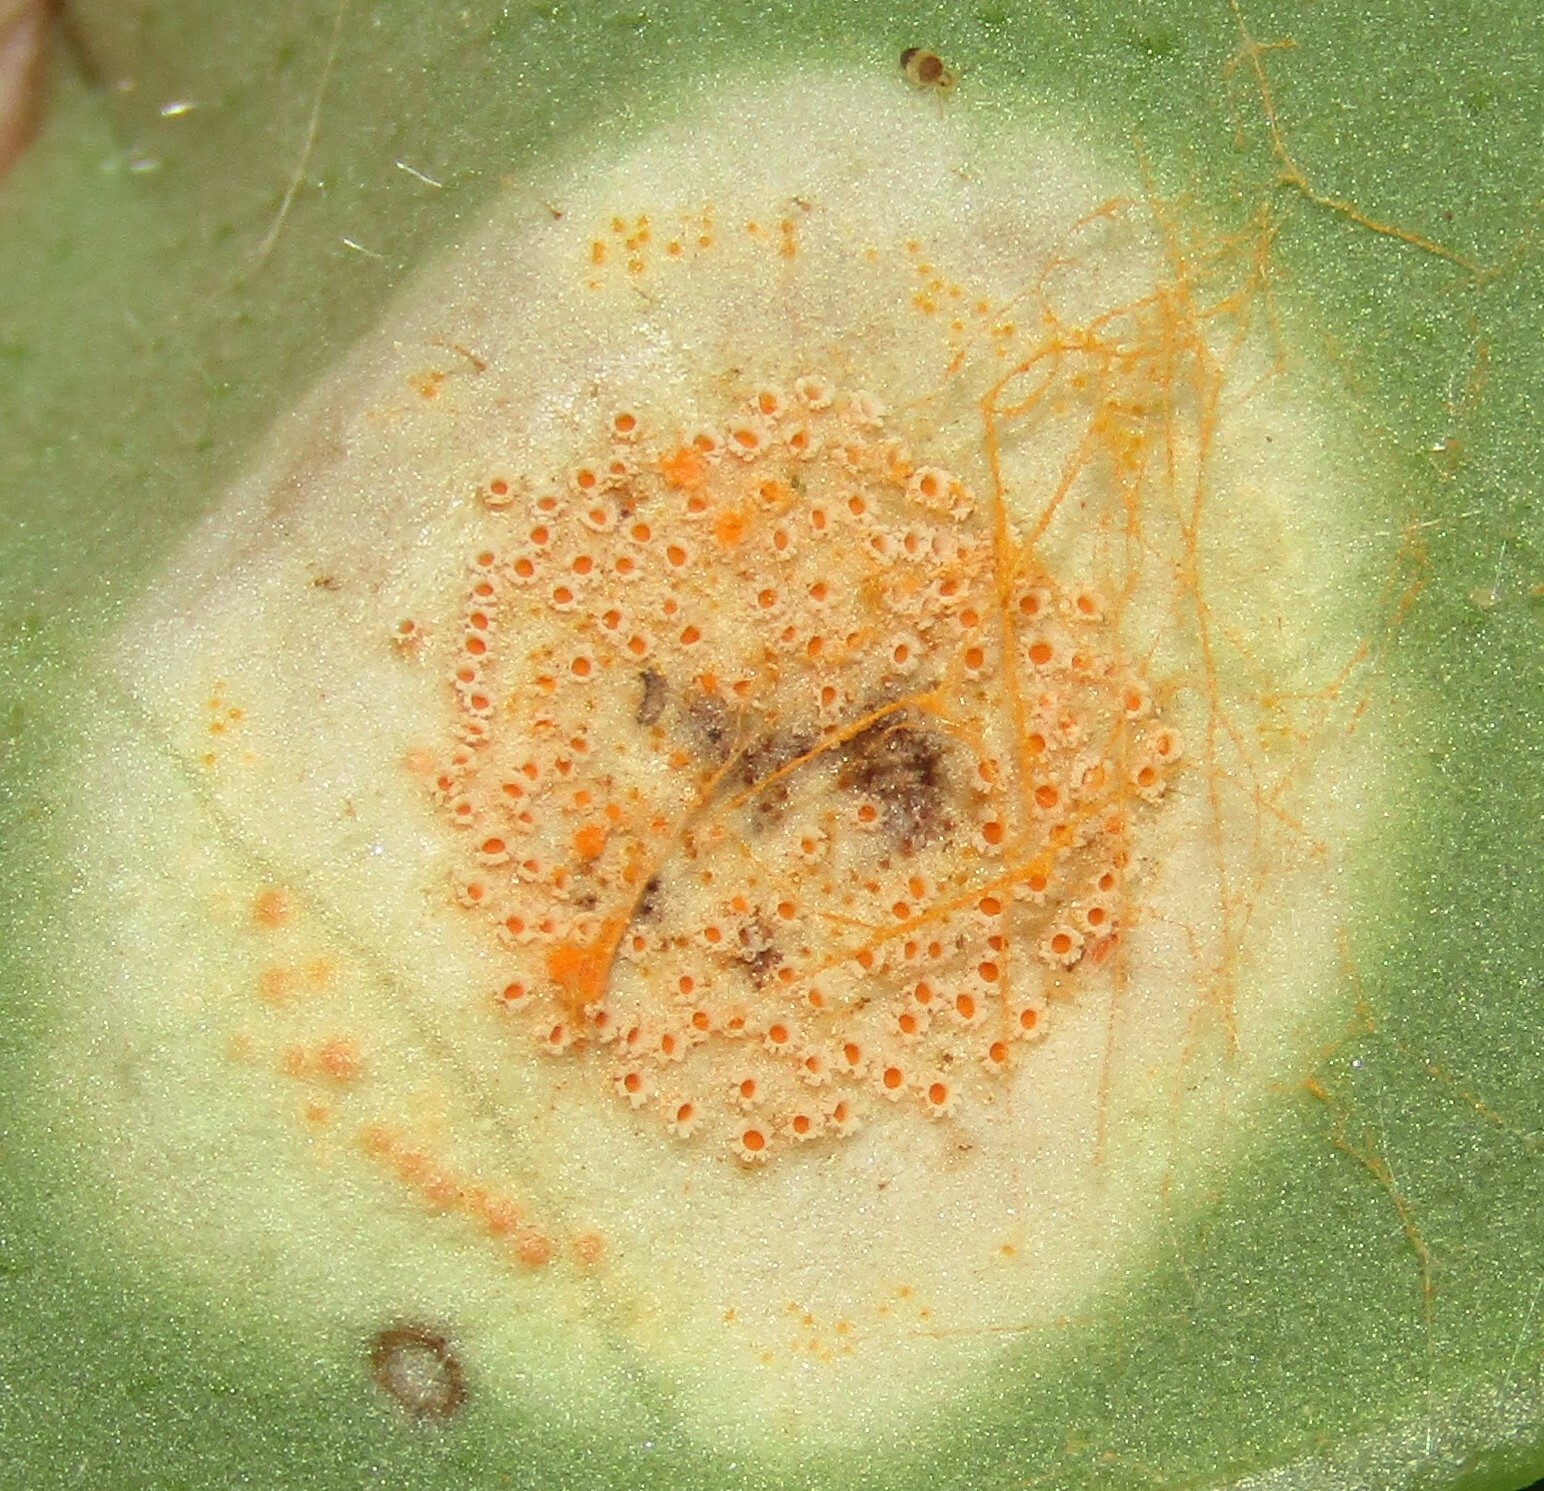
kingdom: Fungi
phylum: Basidiomycota
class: Pucciniomycetes
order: Pucciniales
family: Pucciniaceae
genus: Puccinia
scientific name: Puccinia bromina
